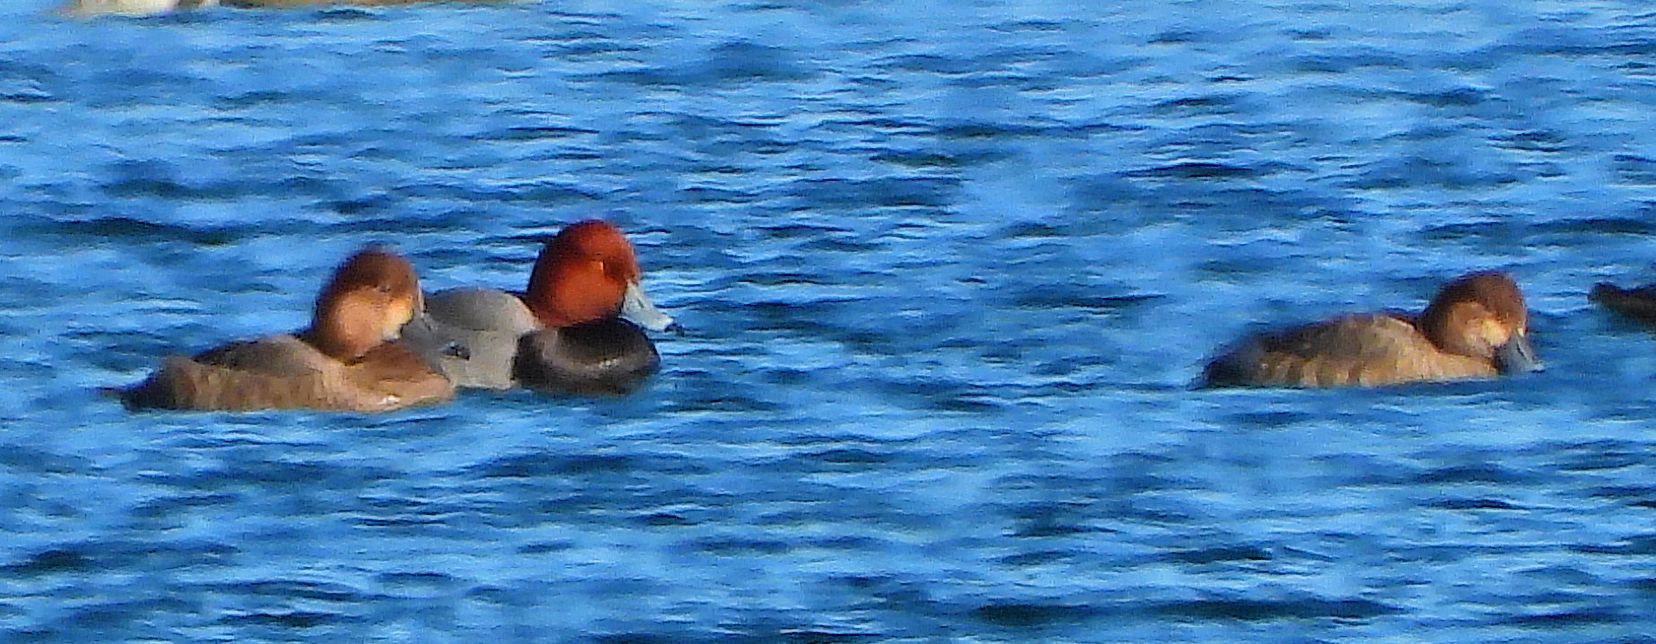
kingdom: Animalia
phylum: Chordata
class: Aves
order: Anseriformes
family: Anatidae
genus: Aythya
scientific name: Aythya americana
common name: Redhead
